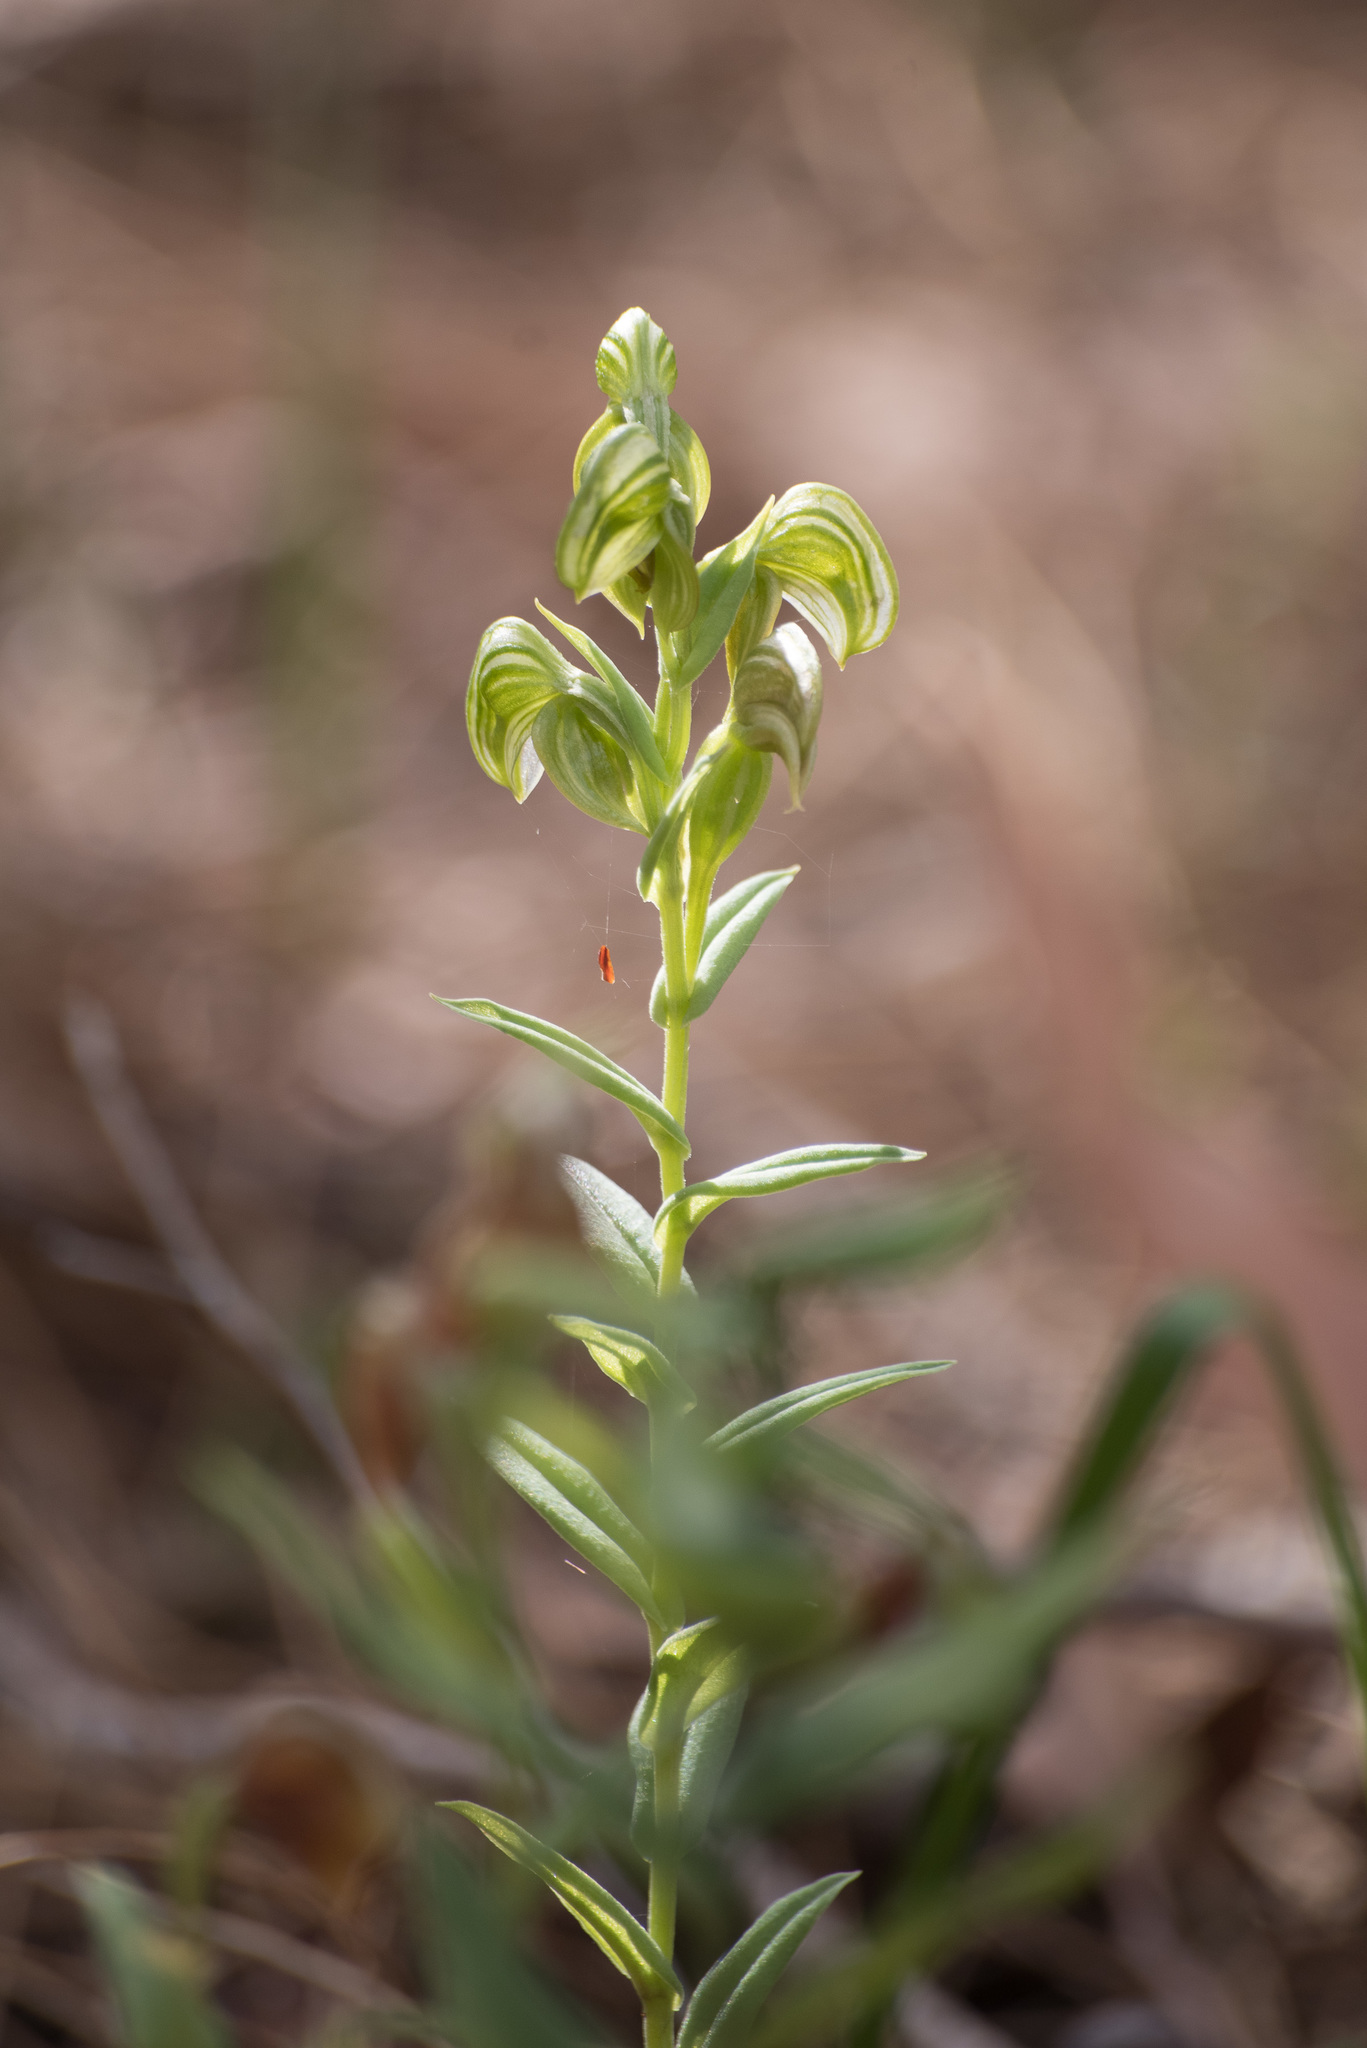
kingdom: Plantae
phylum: Tracheophyta
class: Liliopsida
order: Asparagales
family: Orchidaceae
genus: Pterostylis
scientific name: Pterostylis vittata
